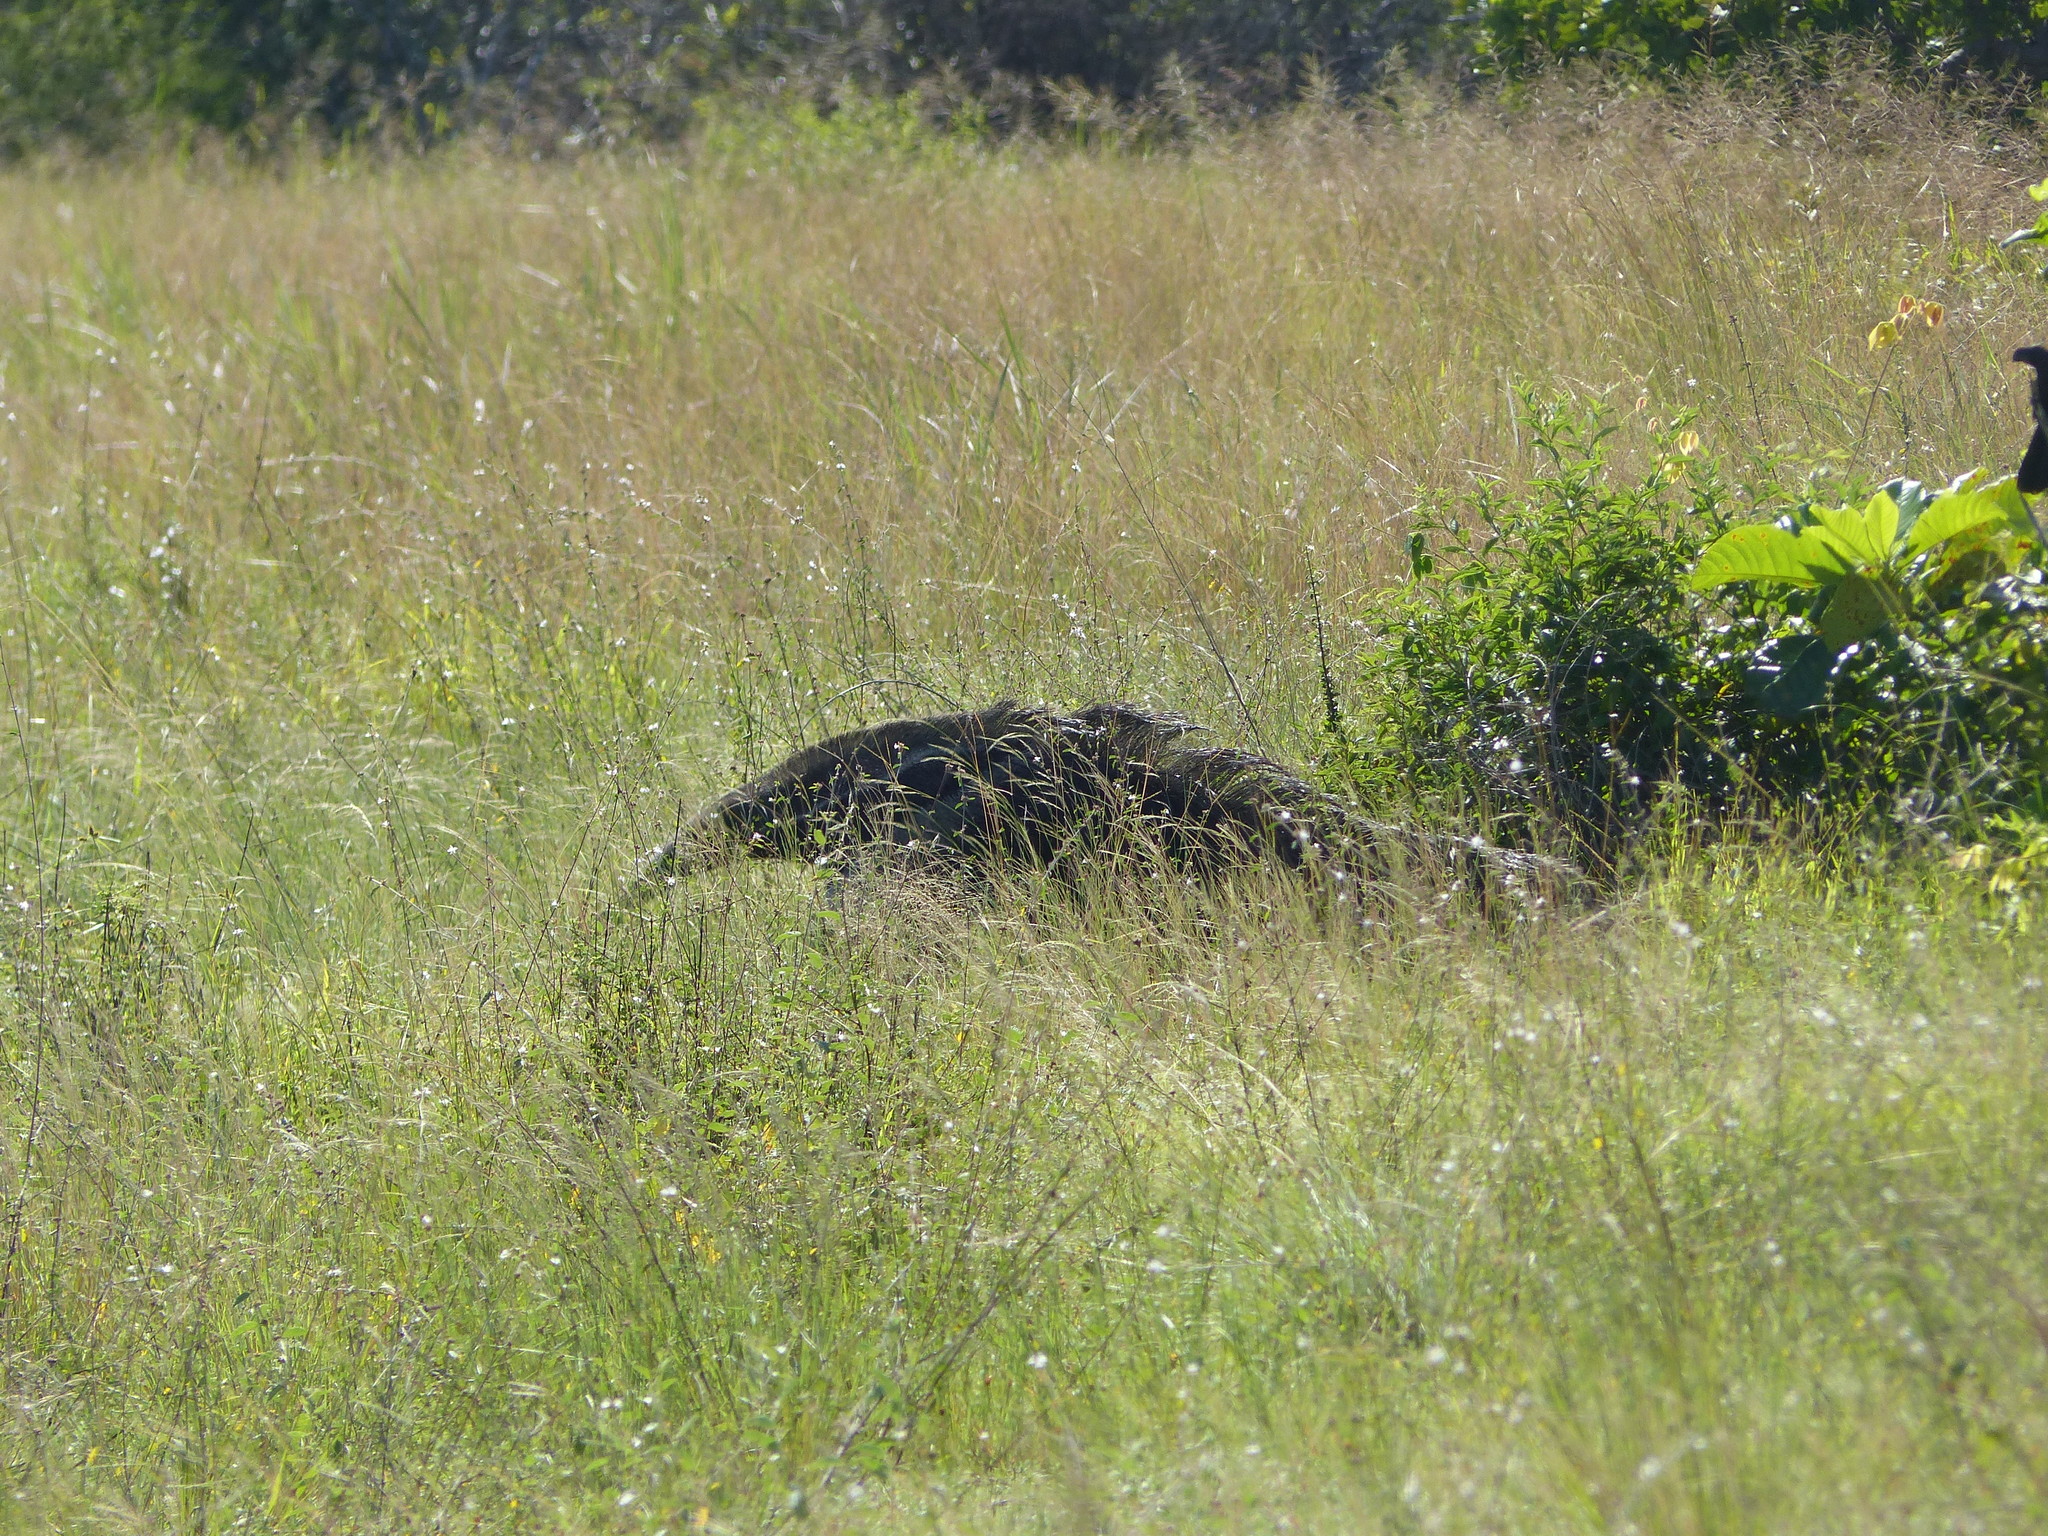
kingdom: Animalia
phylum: Chordata
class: Mammalia
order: Pilosa
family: Myrmecophagidae
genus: Myrmecophaga
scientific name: Myrmecophaga tridactyla
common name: Giant anteater
